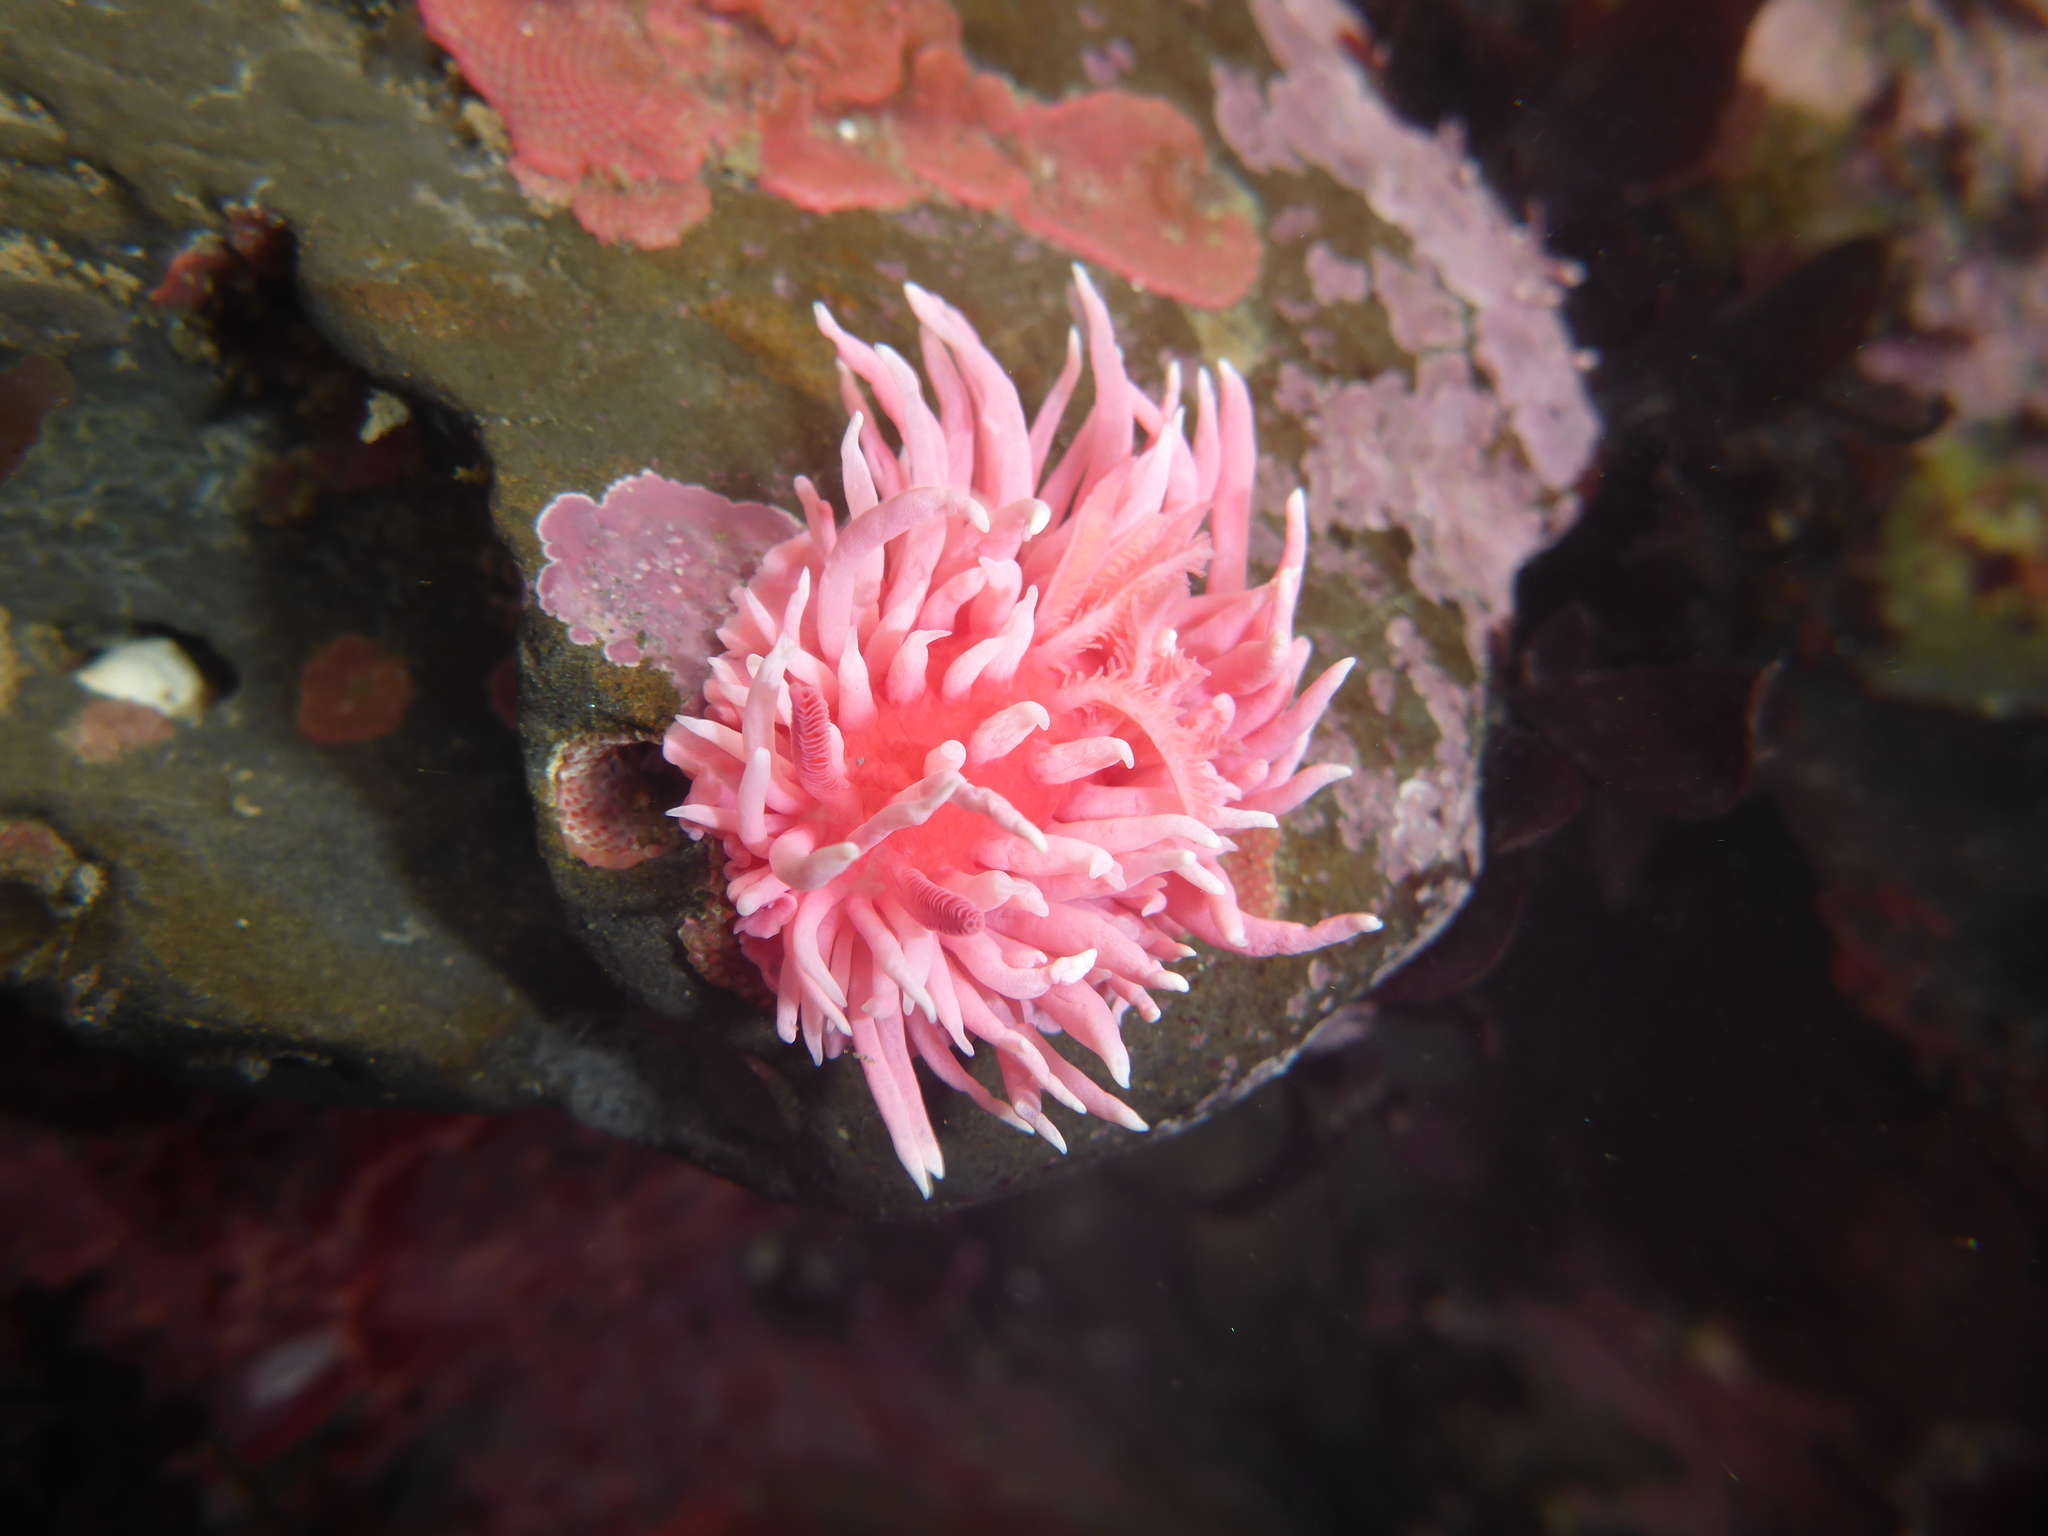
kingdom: Animalia
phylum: Mollusca
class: Gastropoda
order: Nudibranchia
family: Goniodorididae
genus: Okenia
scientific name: Okenia
